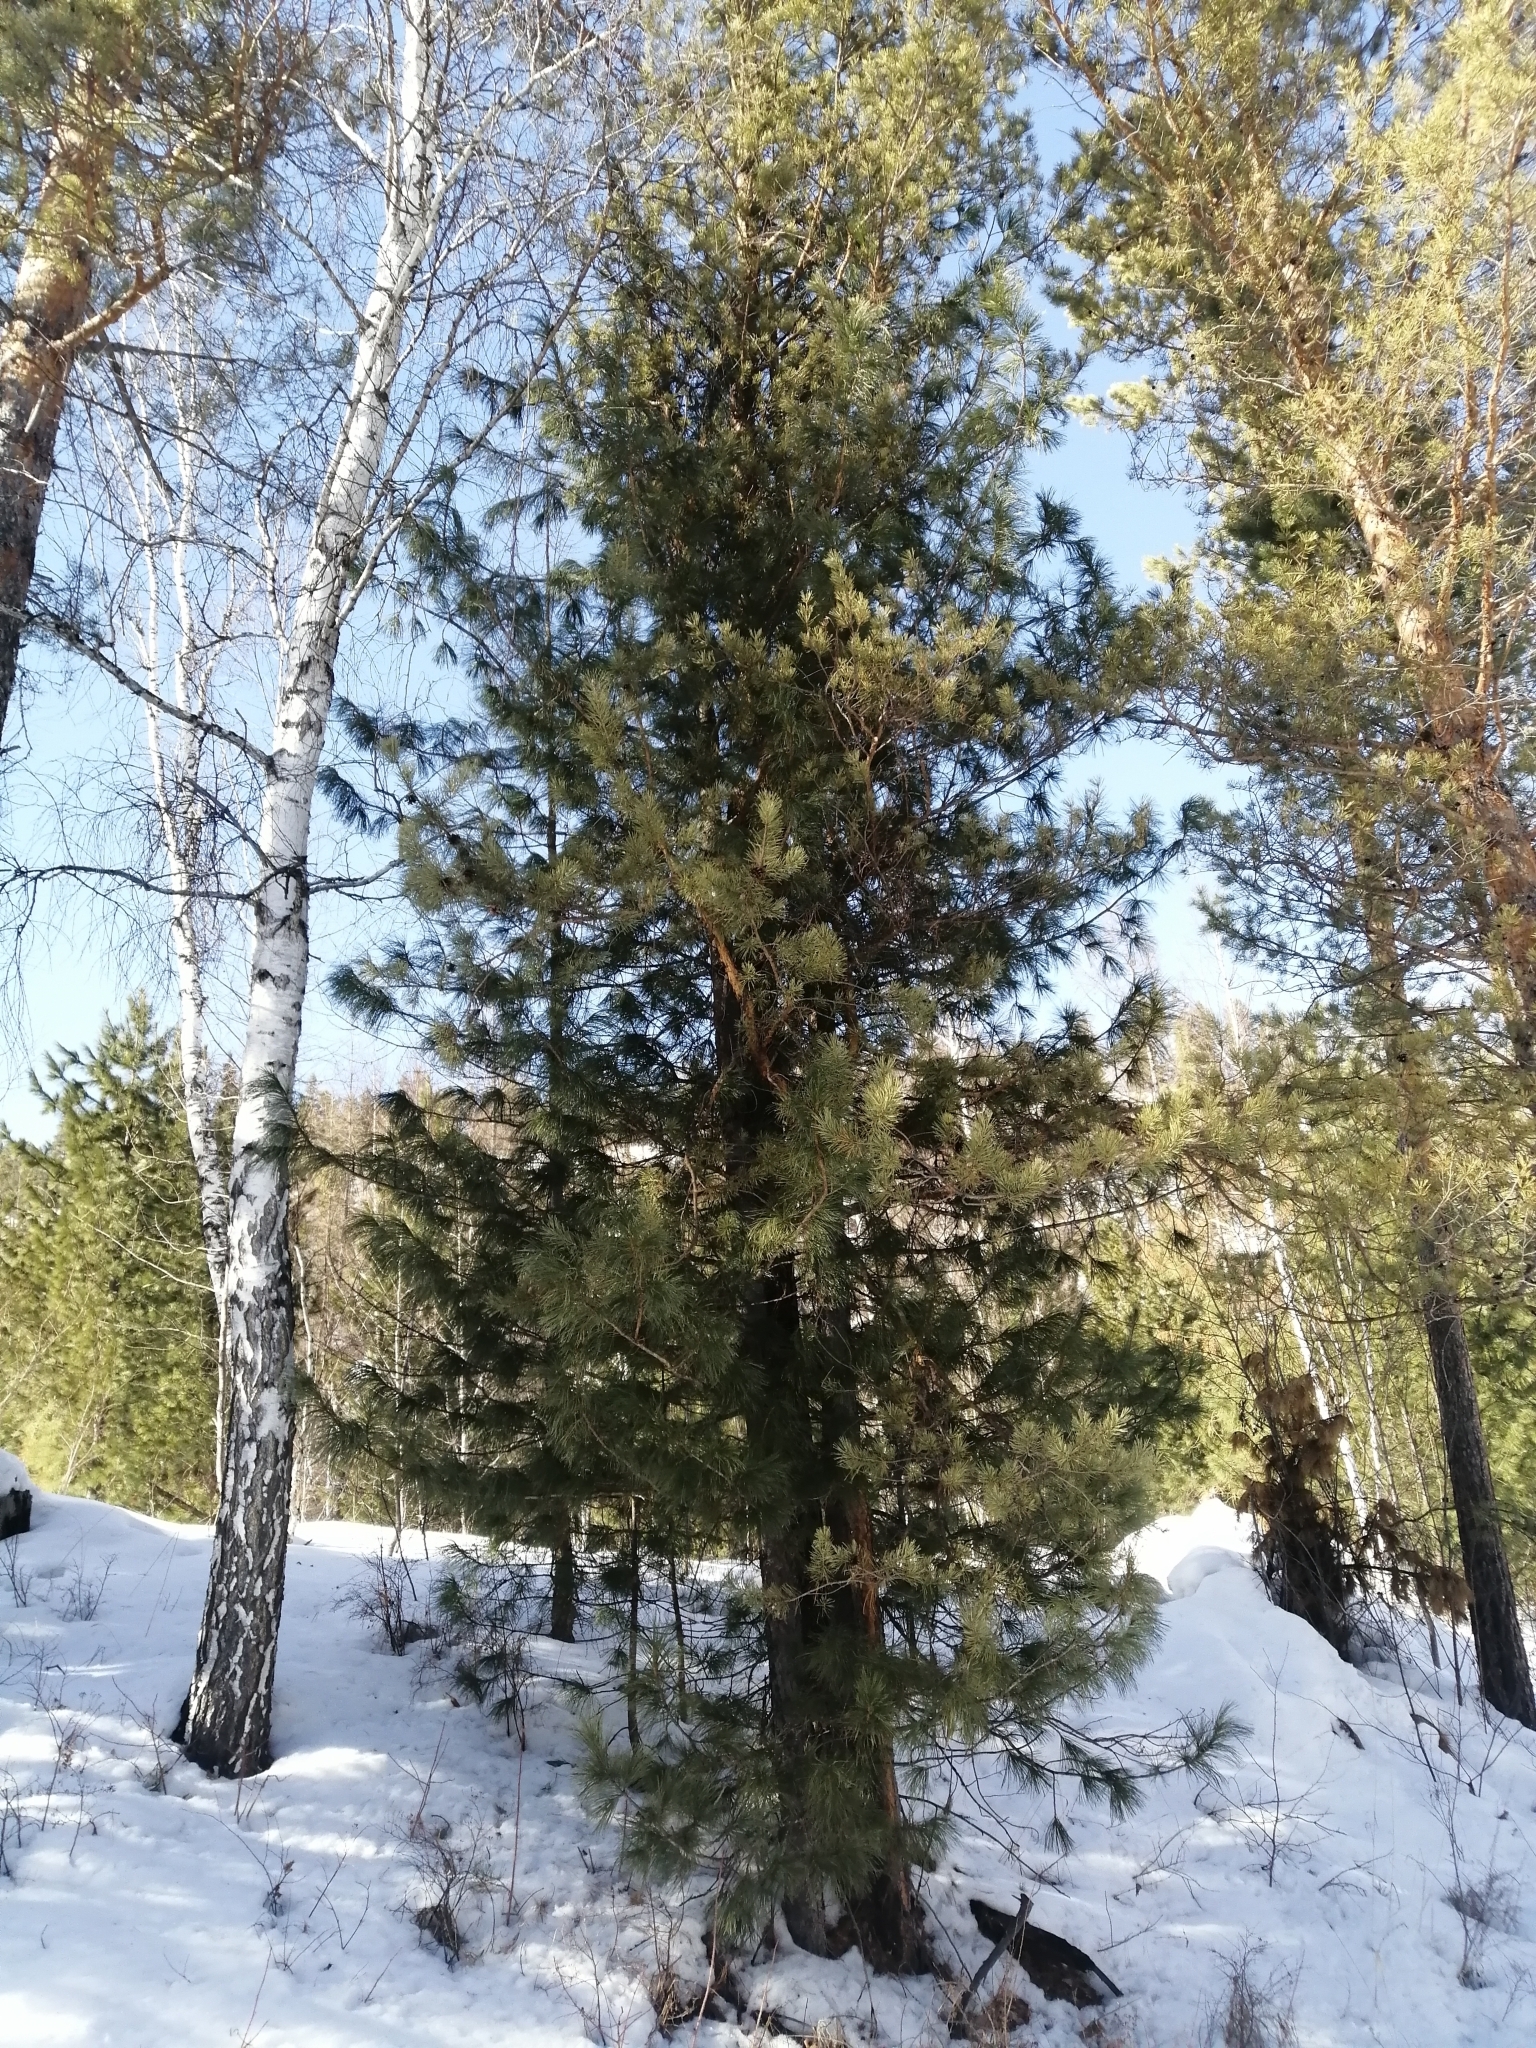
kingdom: Plantae
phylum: Tracheophyta
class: Pinopsida
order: Pinales
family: Pinaceae
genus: Pinus
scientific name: Pinus sibirica
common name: Siberian pine
